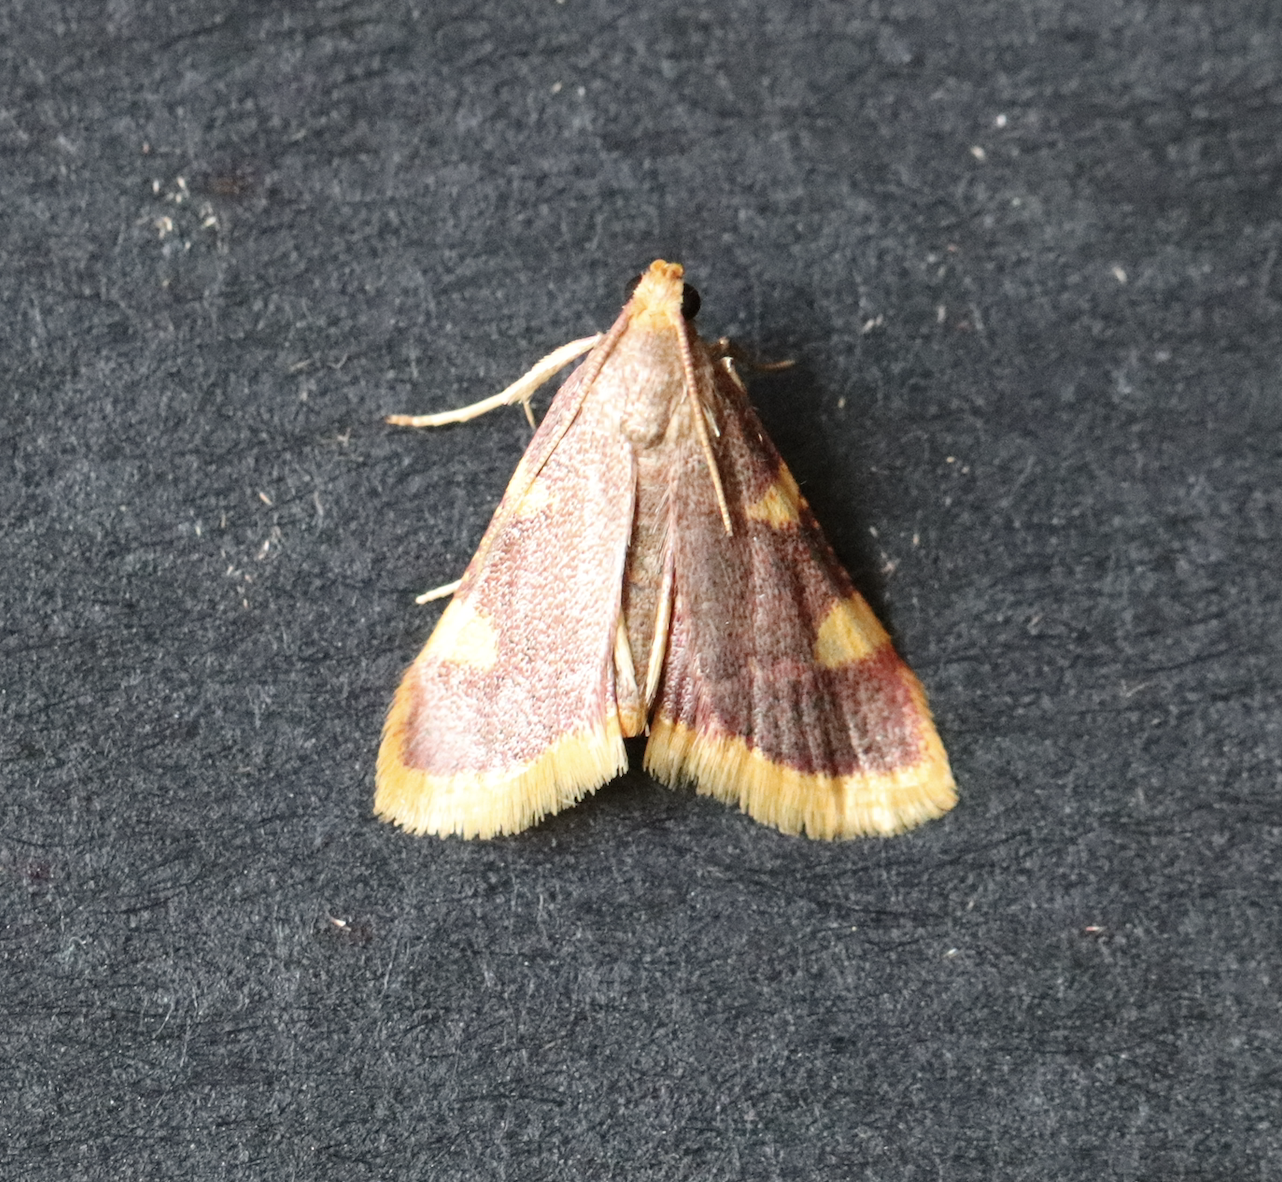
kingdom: Animalia
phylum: Arthropoda
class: Insecta
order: Lepidoptera
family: Pyralidae
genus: Hypsopygia
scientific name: Hypsopygia costalis
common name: Gold triangle
